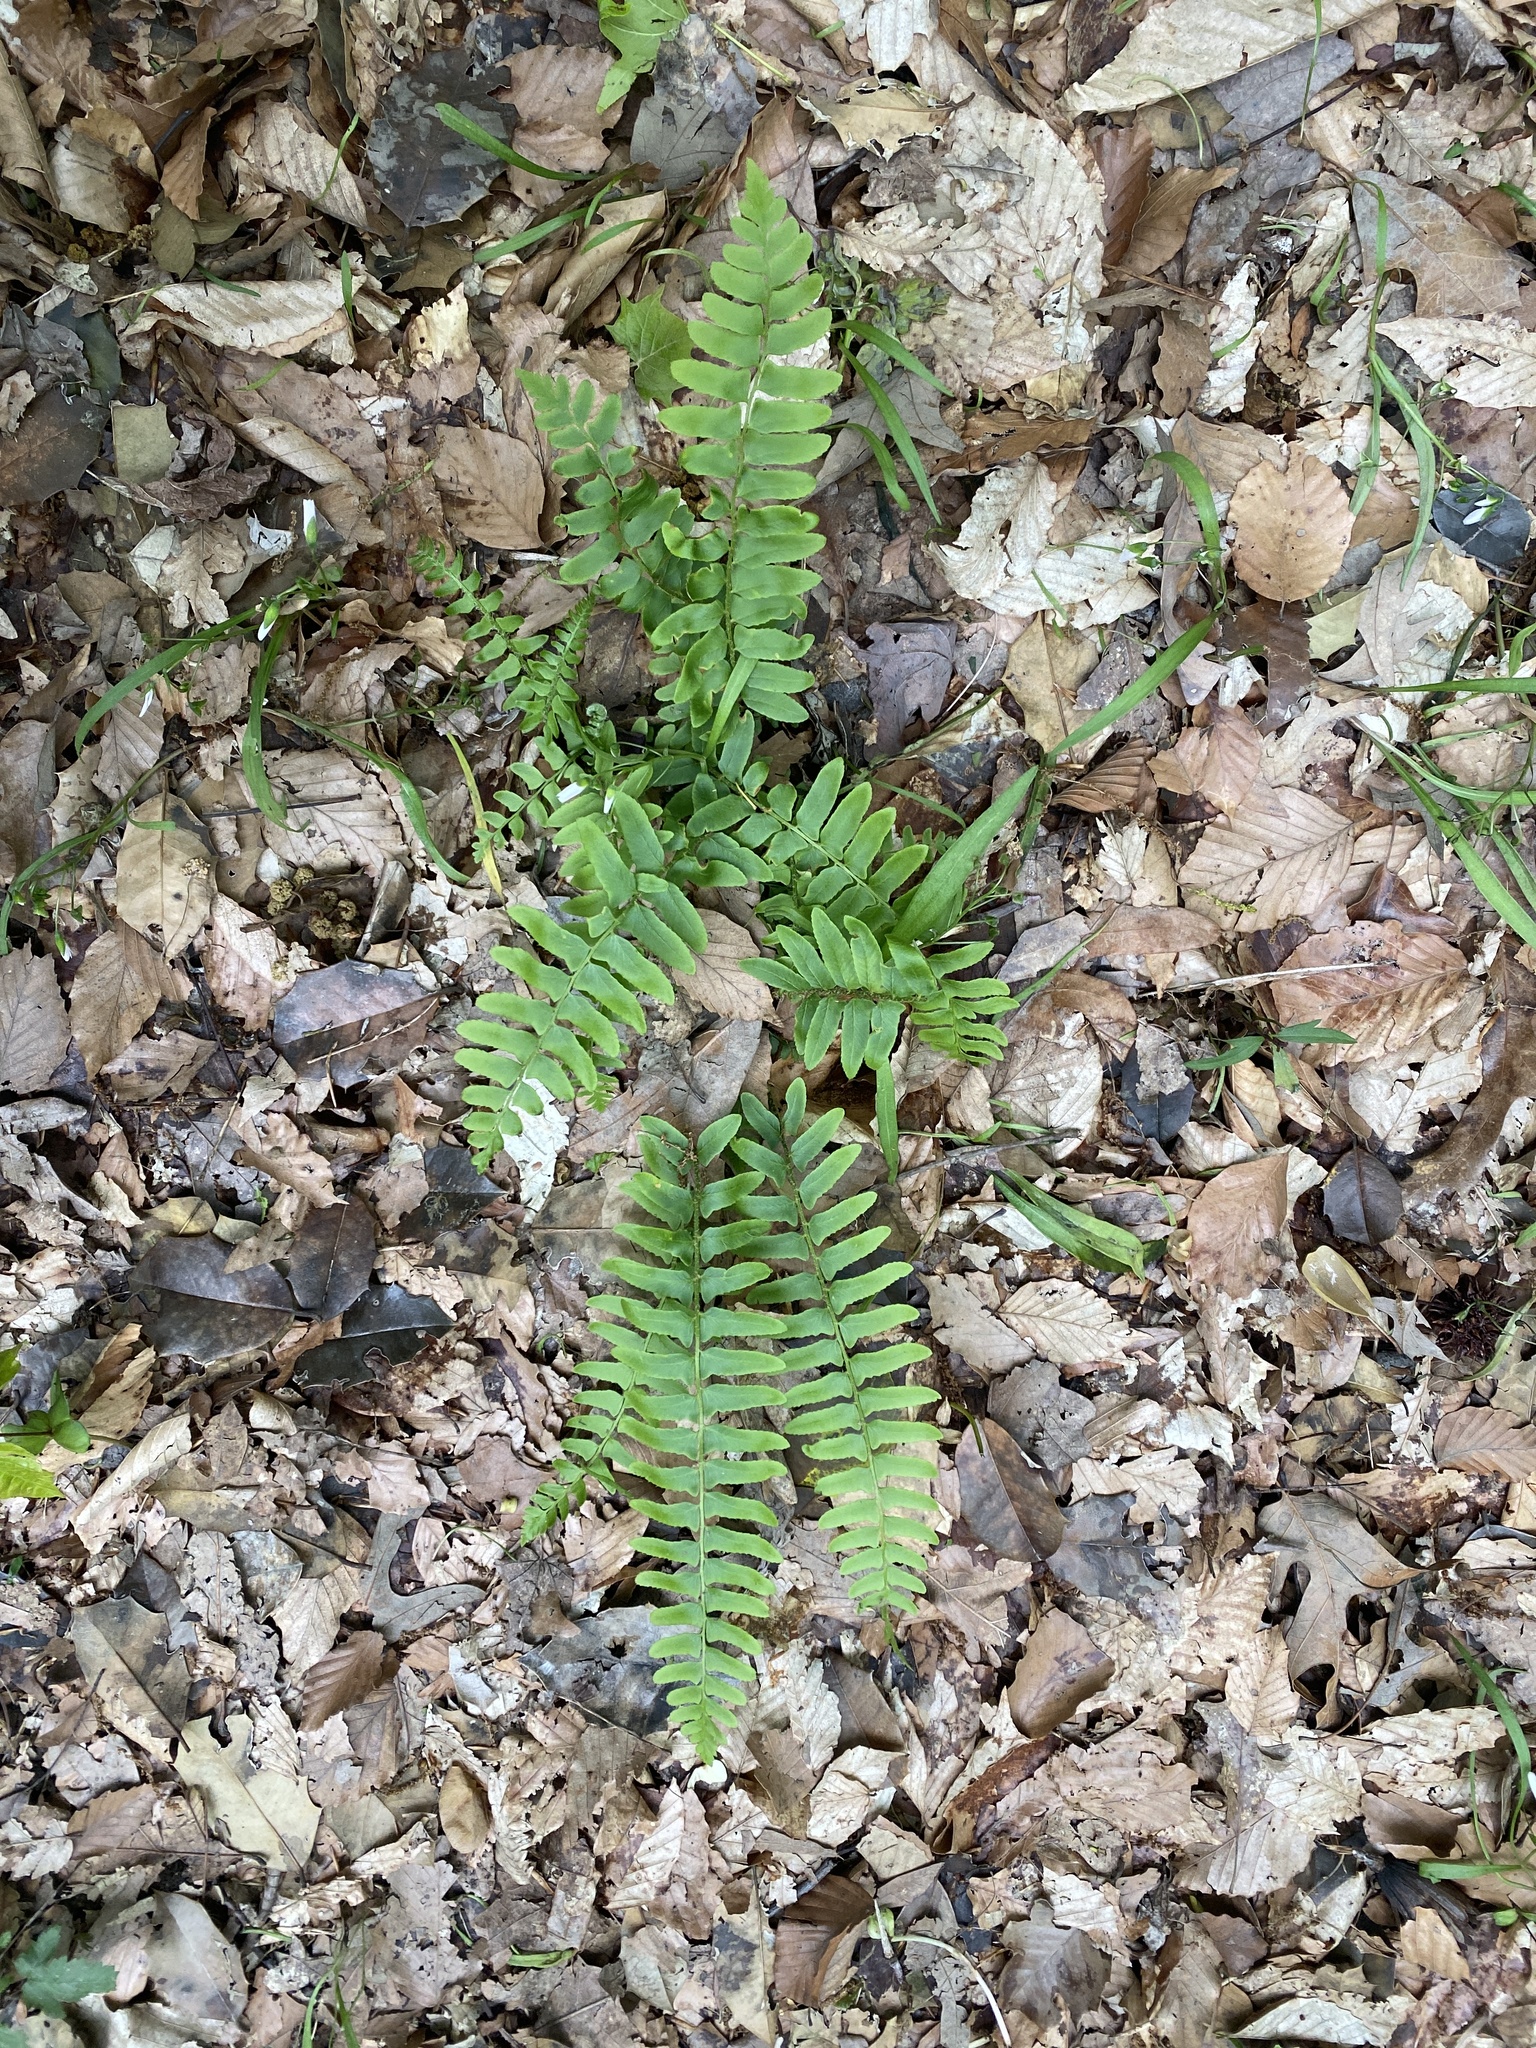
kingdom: Plantae
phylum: Tracheophyta
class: Polypodiopsida
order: Polypodiales
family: Dryopteridaceae
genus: Polystichum
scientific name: Polystichum acrostichoides
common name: Christmas fern
